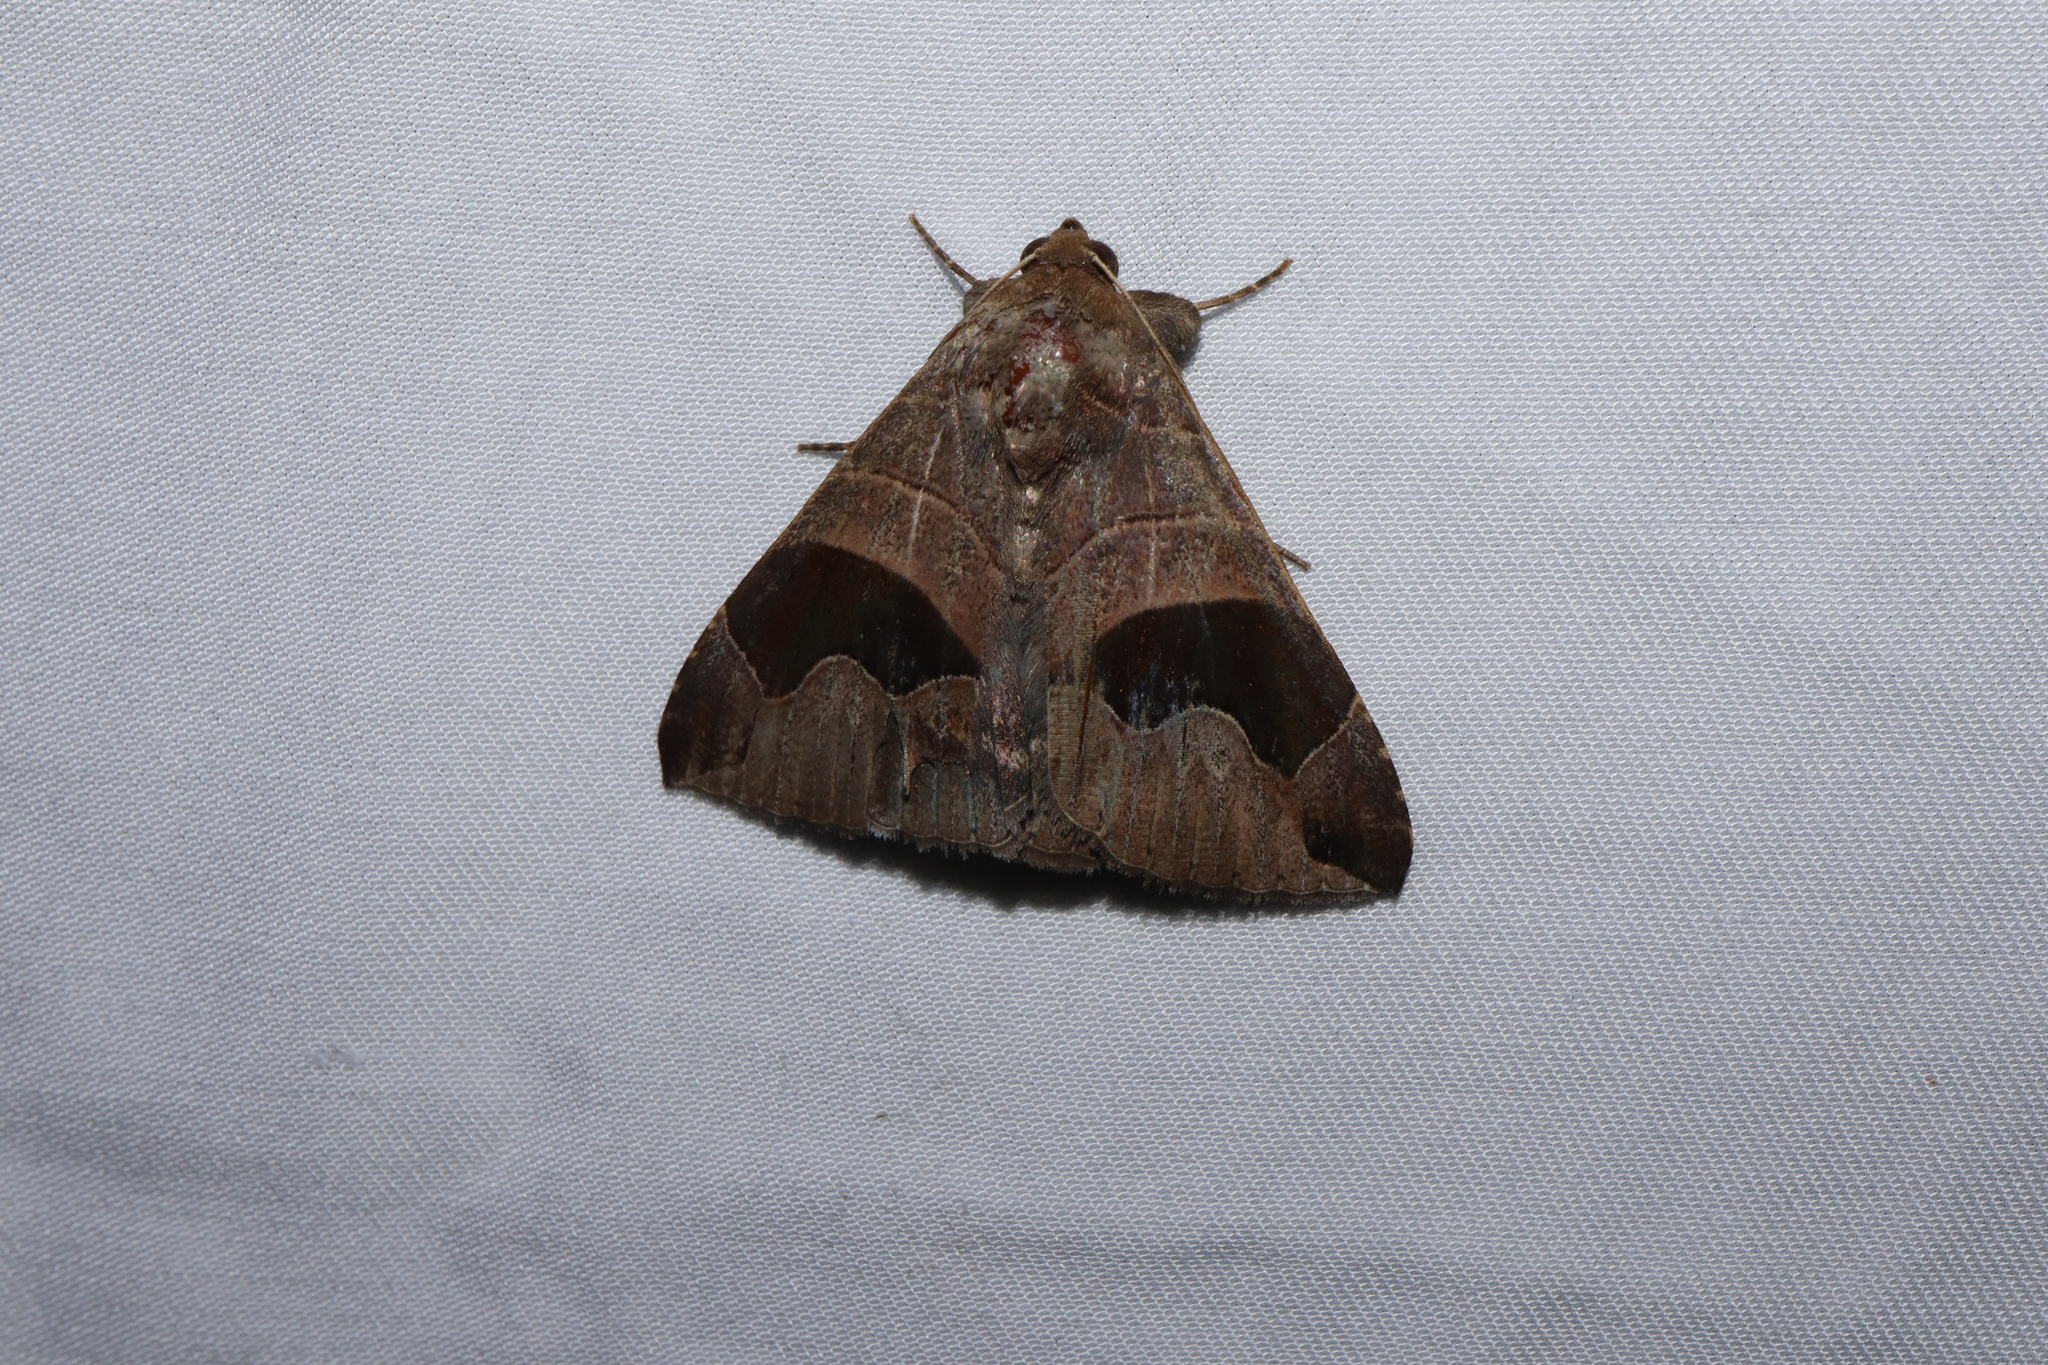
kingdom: Animalia
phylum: Arthropoda
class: Insecta
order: Lepidoptera
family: Erebidae
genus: Bastilla
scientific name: Bastilla solomonensis
